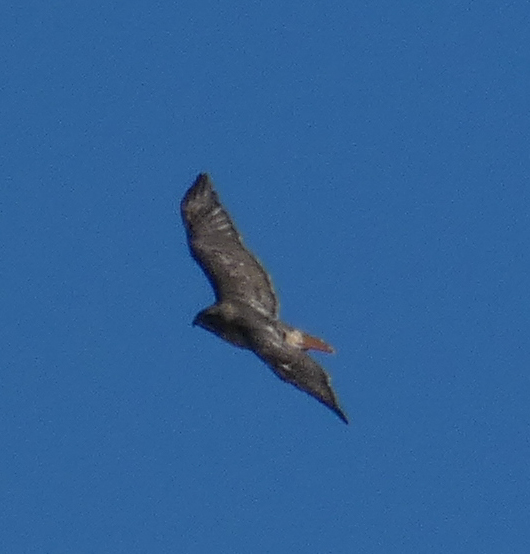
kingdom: Animalia
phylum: Chordata
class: Aves
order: Accipitriformes
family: Accipitridae
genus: Buteo
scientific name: Buteo jamaicensis
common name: Red-tailed hawk
